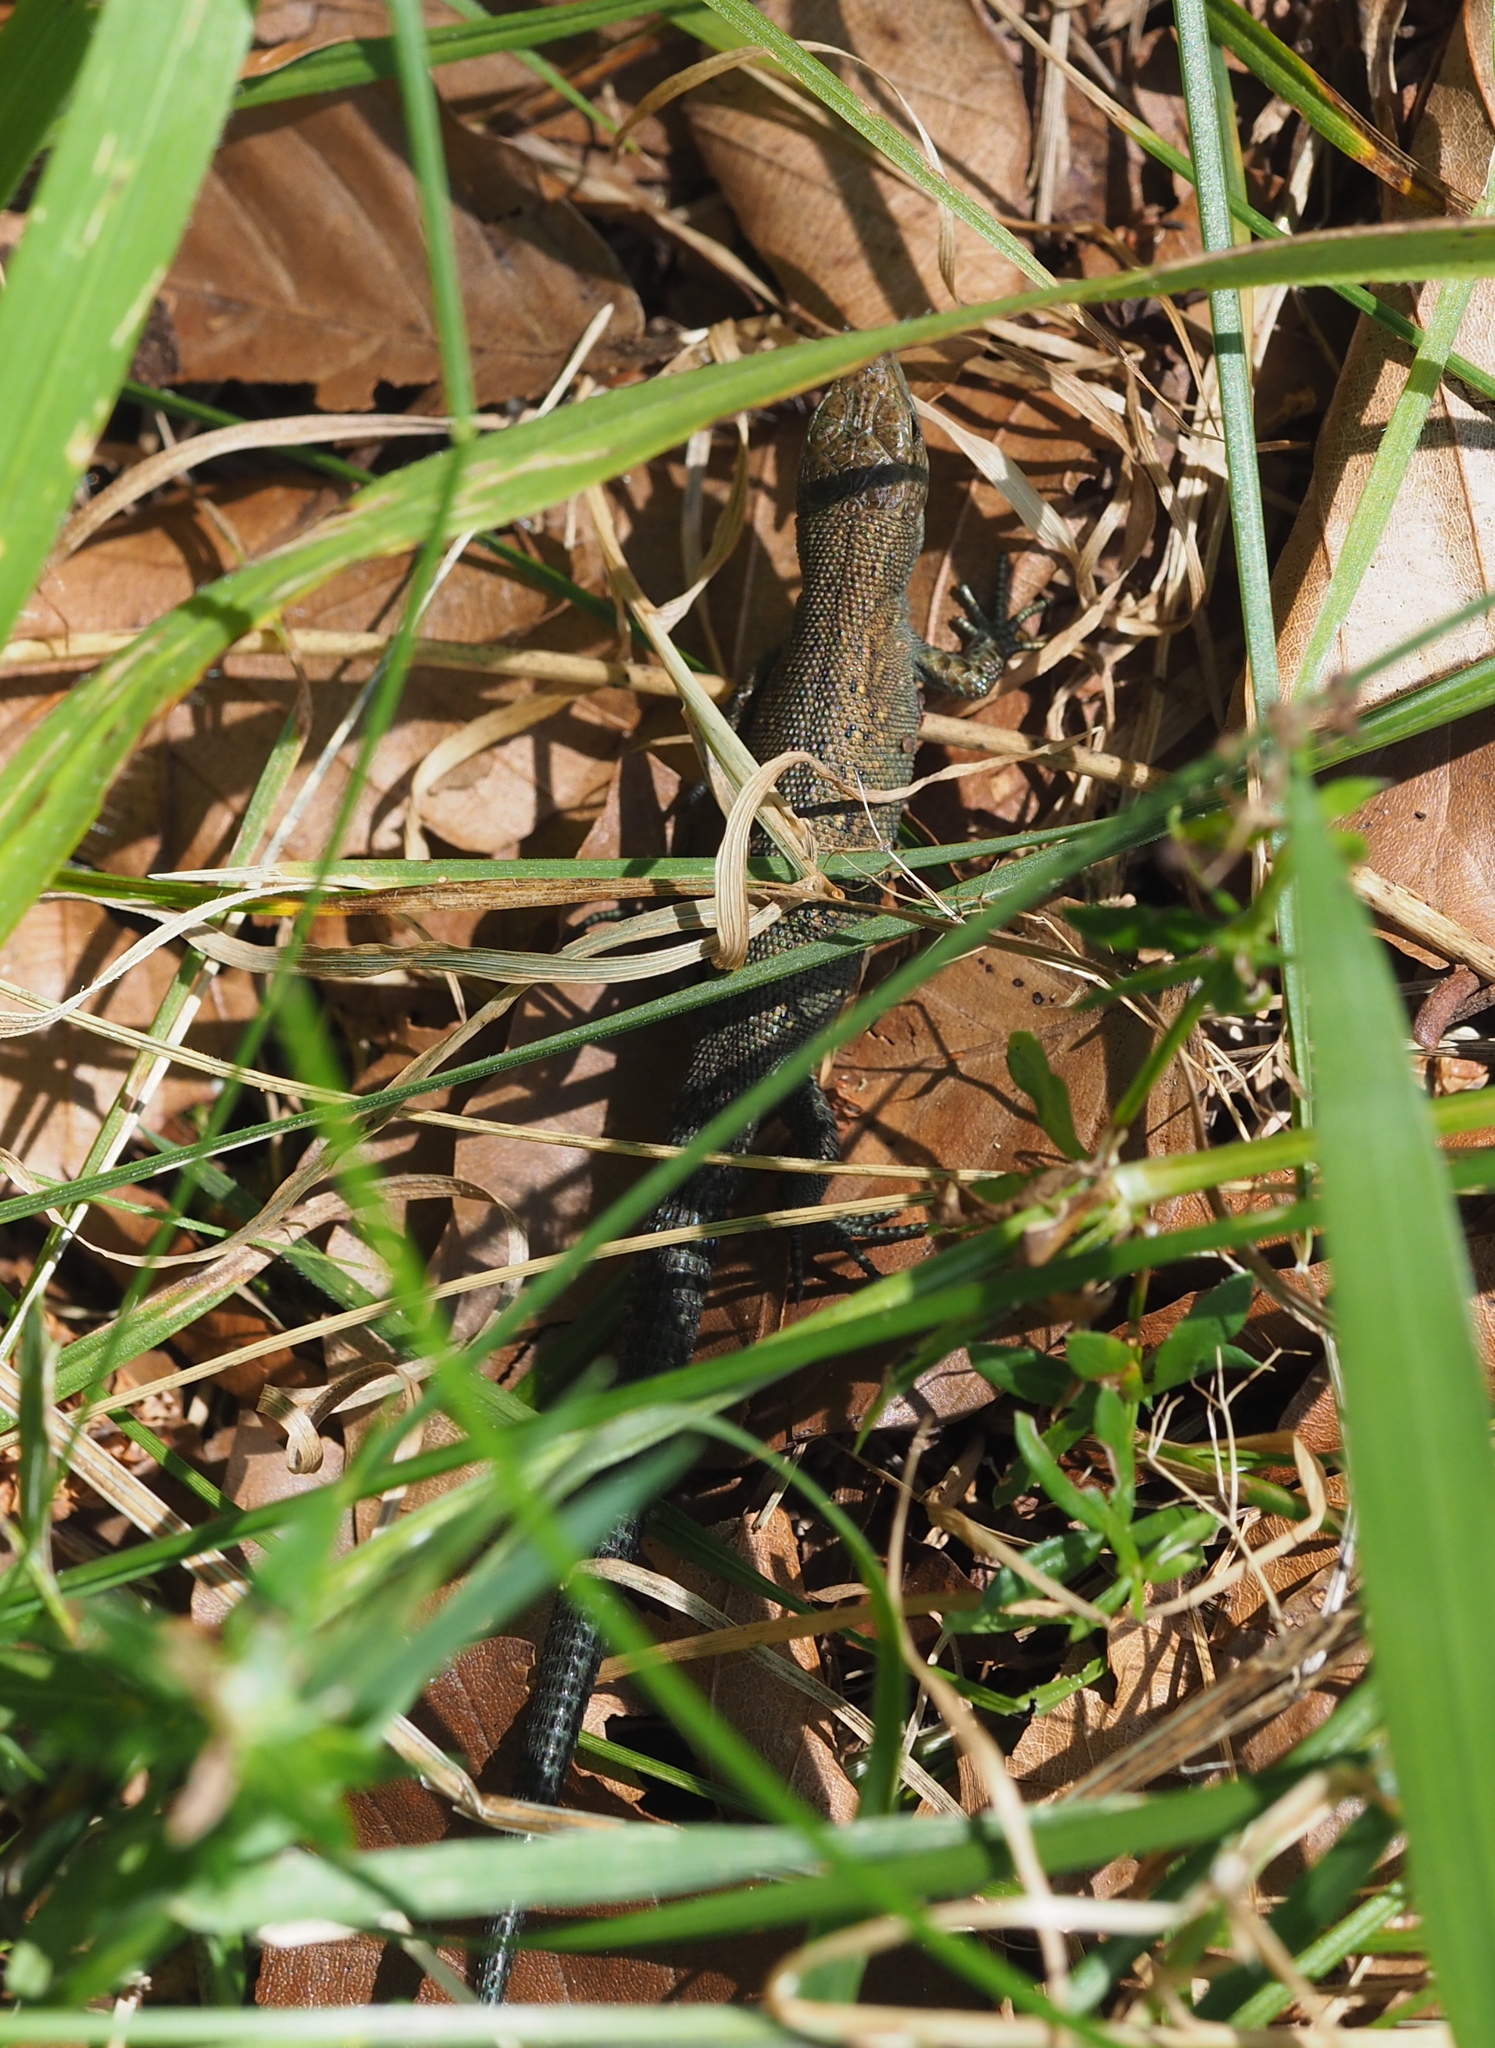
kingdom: Animalia
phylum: Chordata
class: Squamata
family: Lacertidae
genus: Zootoca
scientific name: Zootoca vivipara
